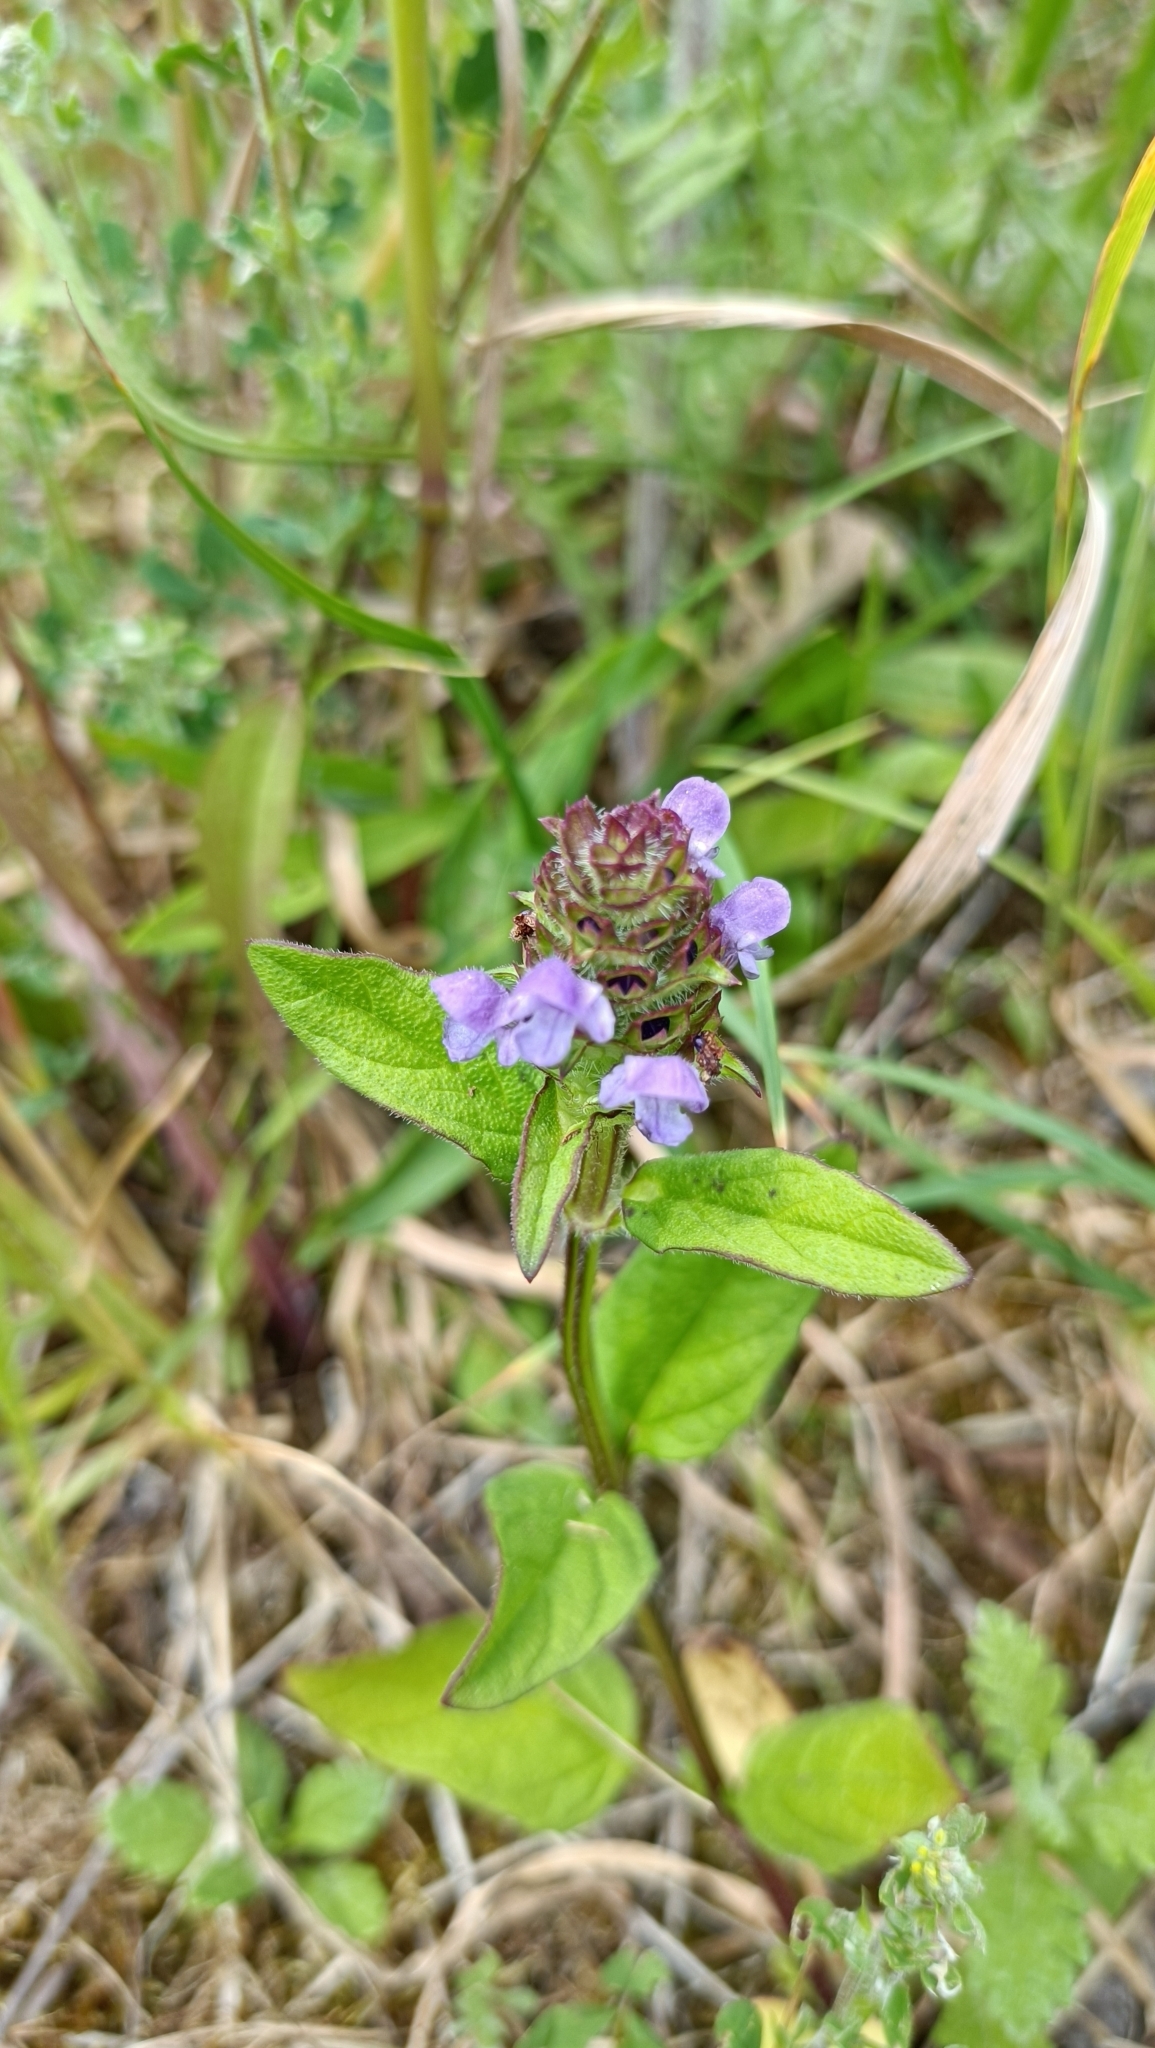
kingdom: Plantae
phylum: Tracheophyta
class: Magnoliopsida
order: Lamiales
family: Lamiaceae
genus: Prunella
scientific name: Prunella vulgaris
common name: Heal-all
